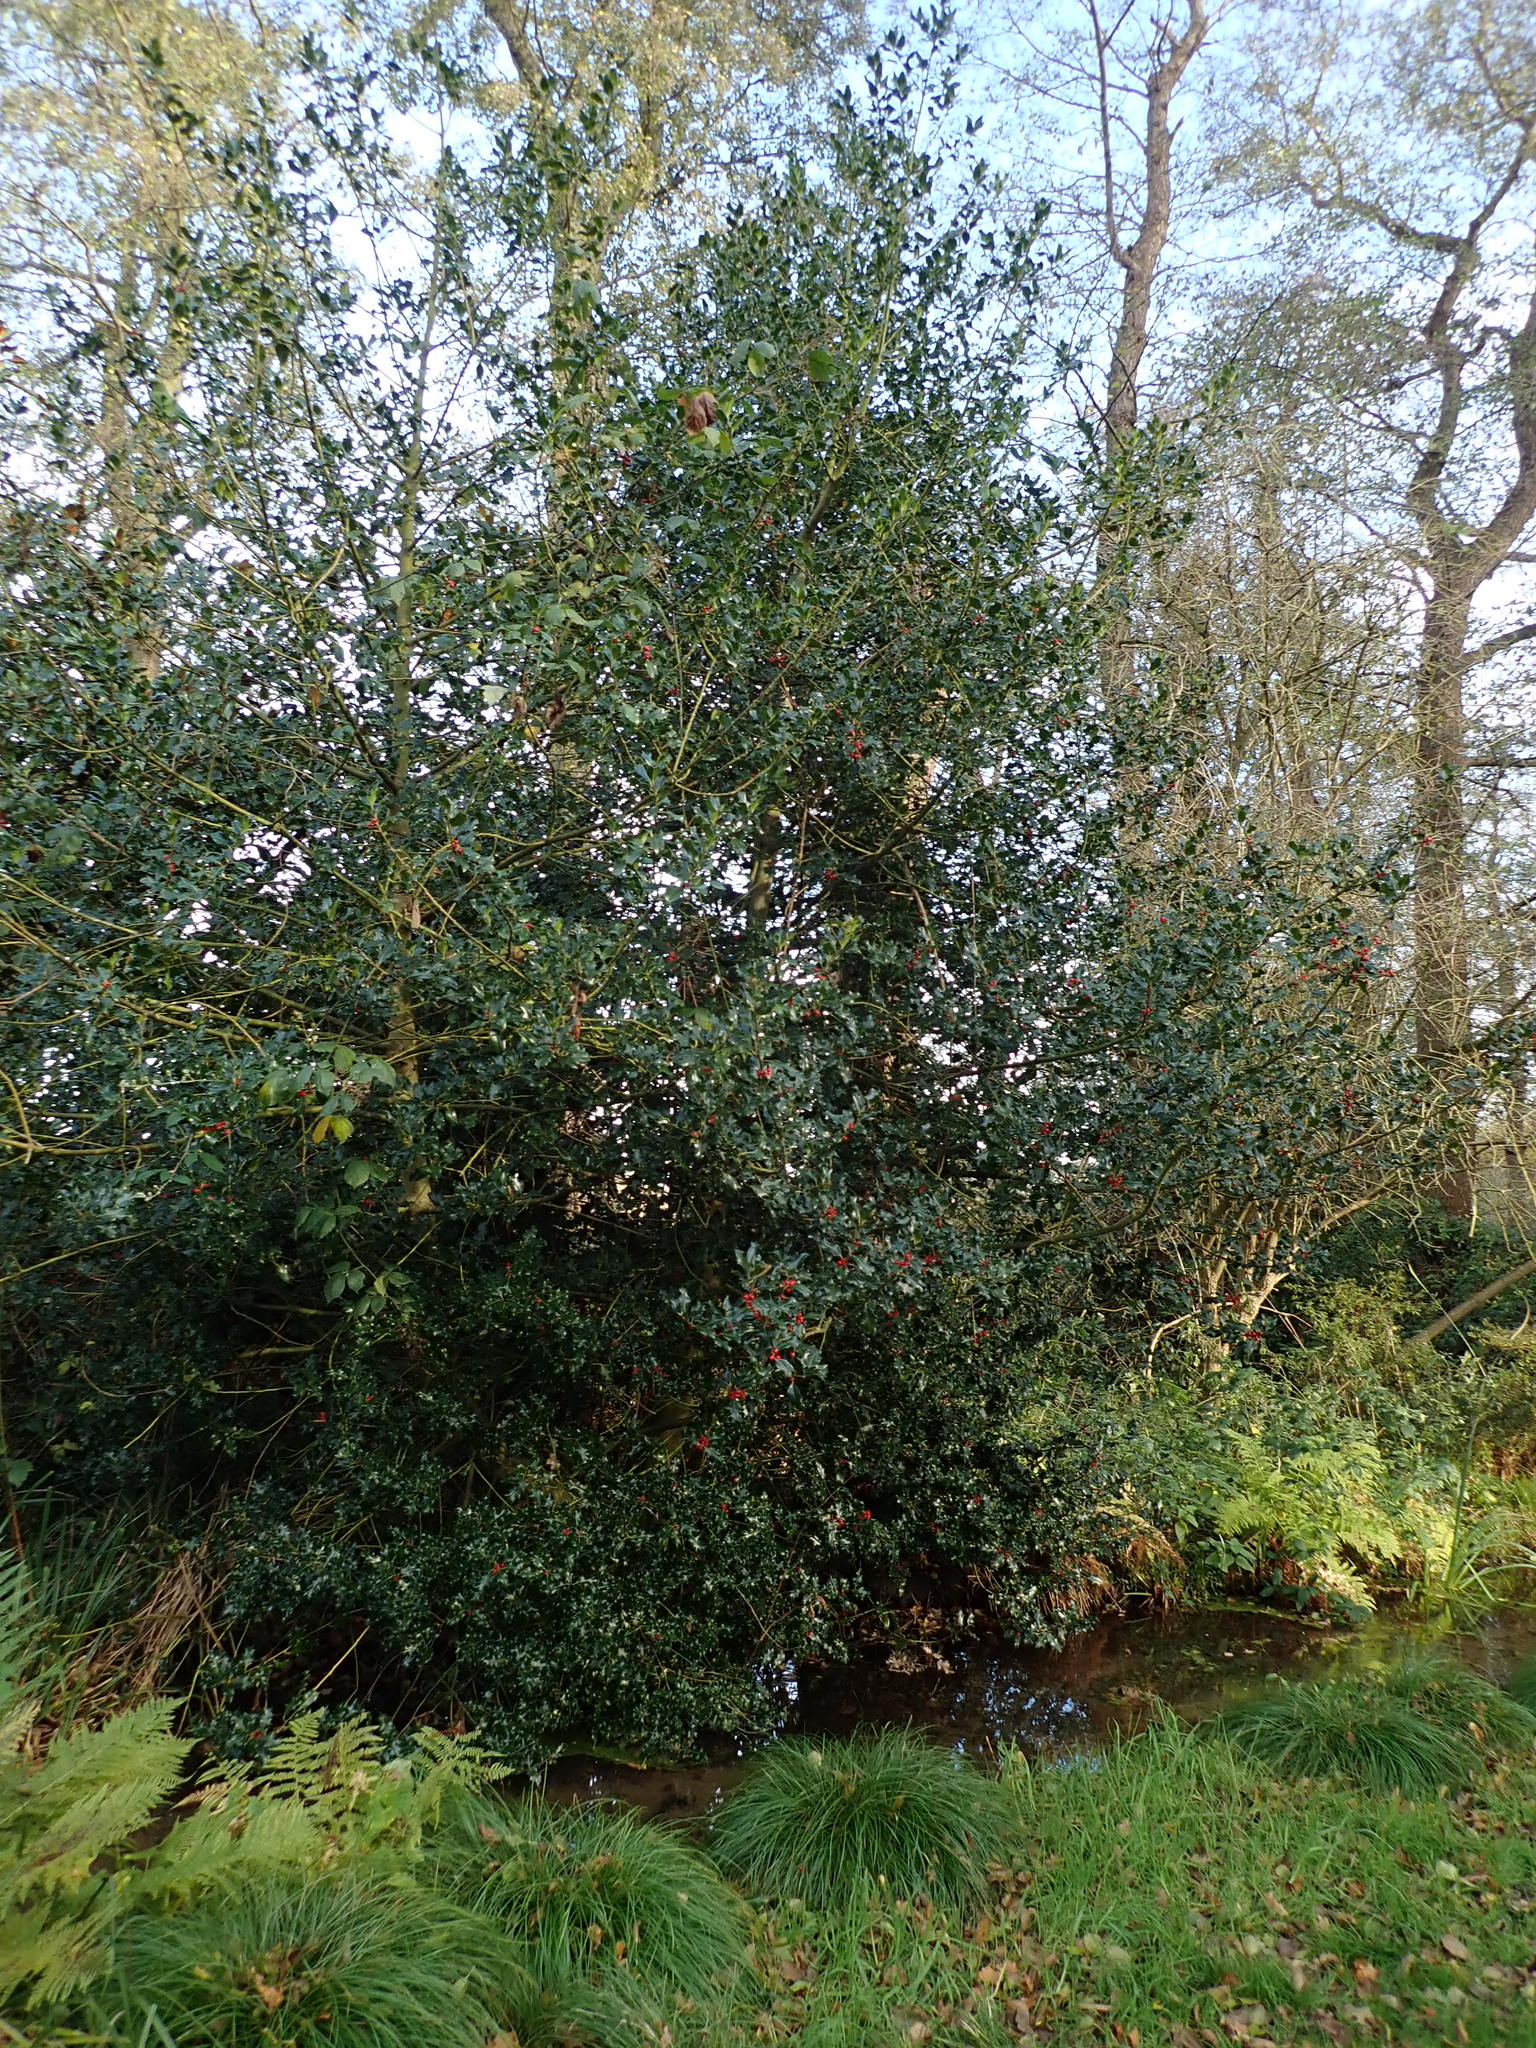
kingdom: Plantae
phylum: Tracheophyta
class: Magnoliopsida
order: Aquifoliales
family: Aquifoliaceae
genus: Ilex
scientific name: Ilex aquifolium
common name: English holly
